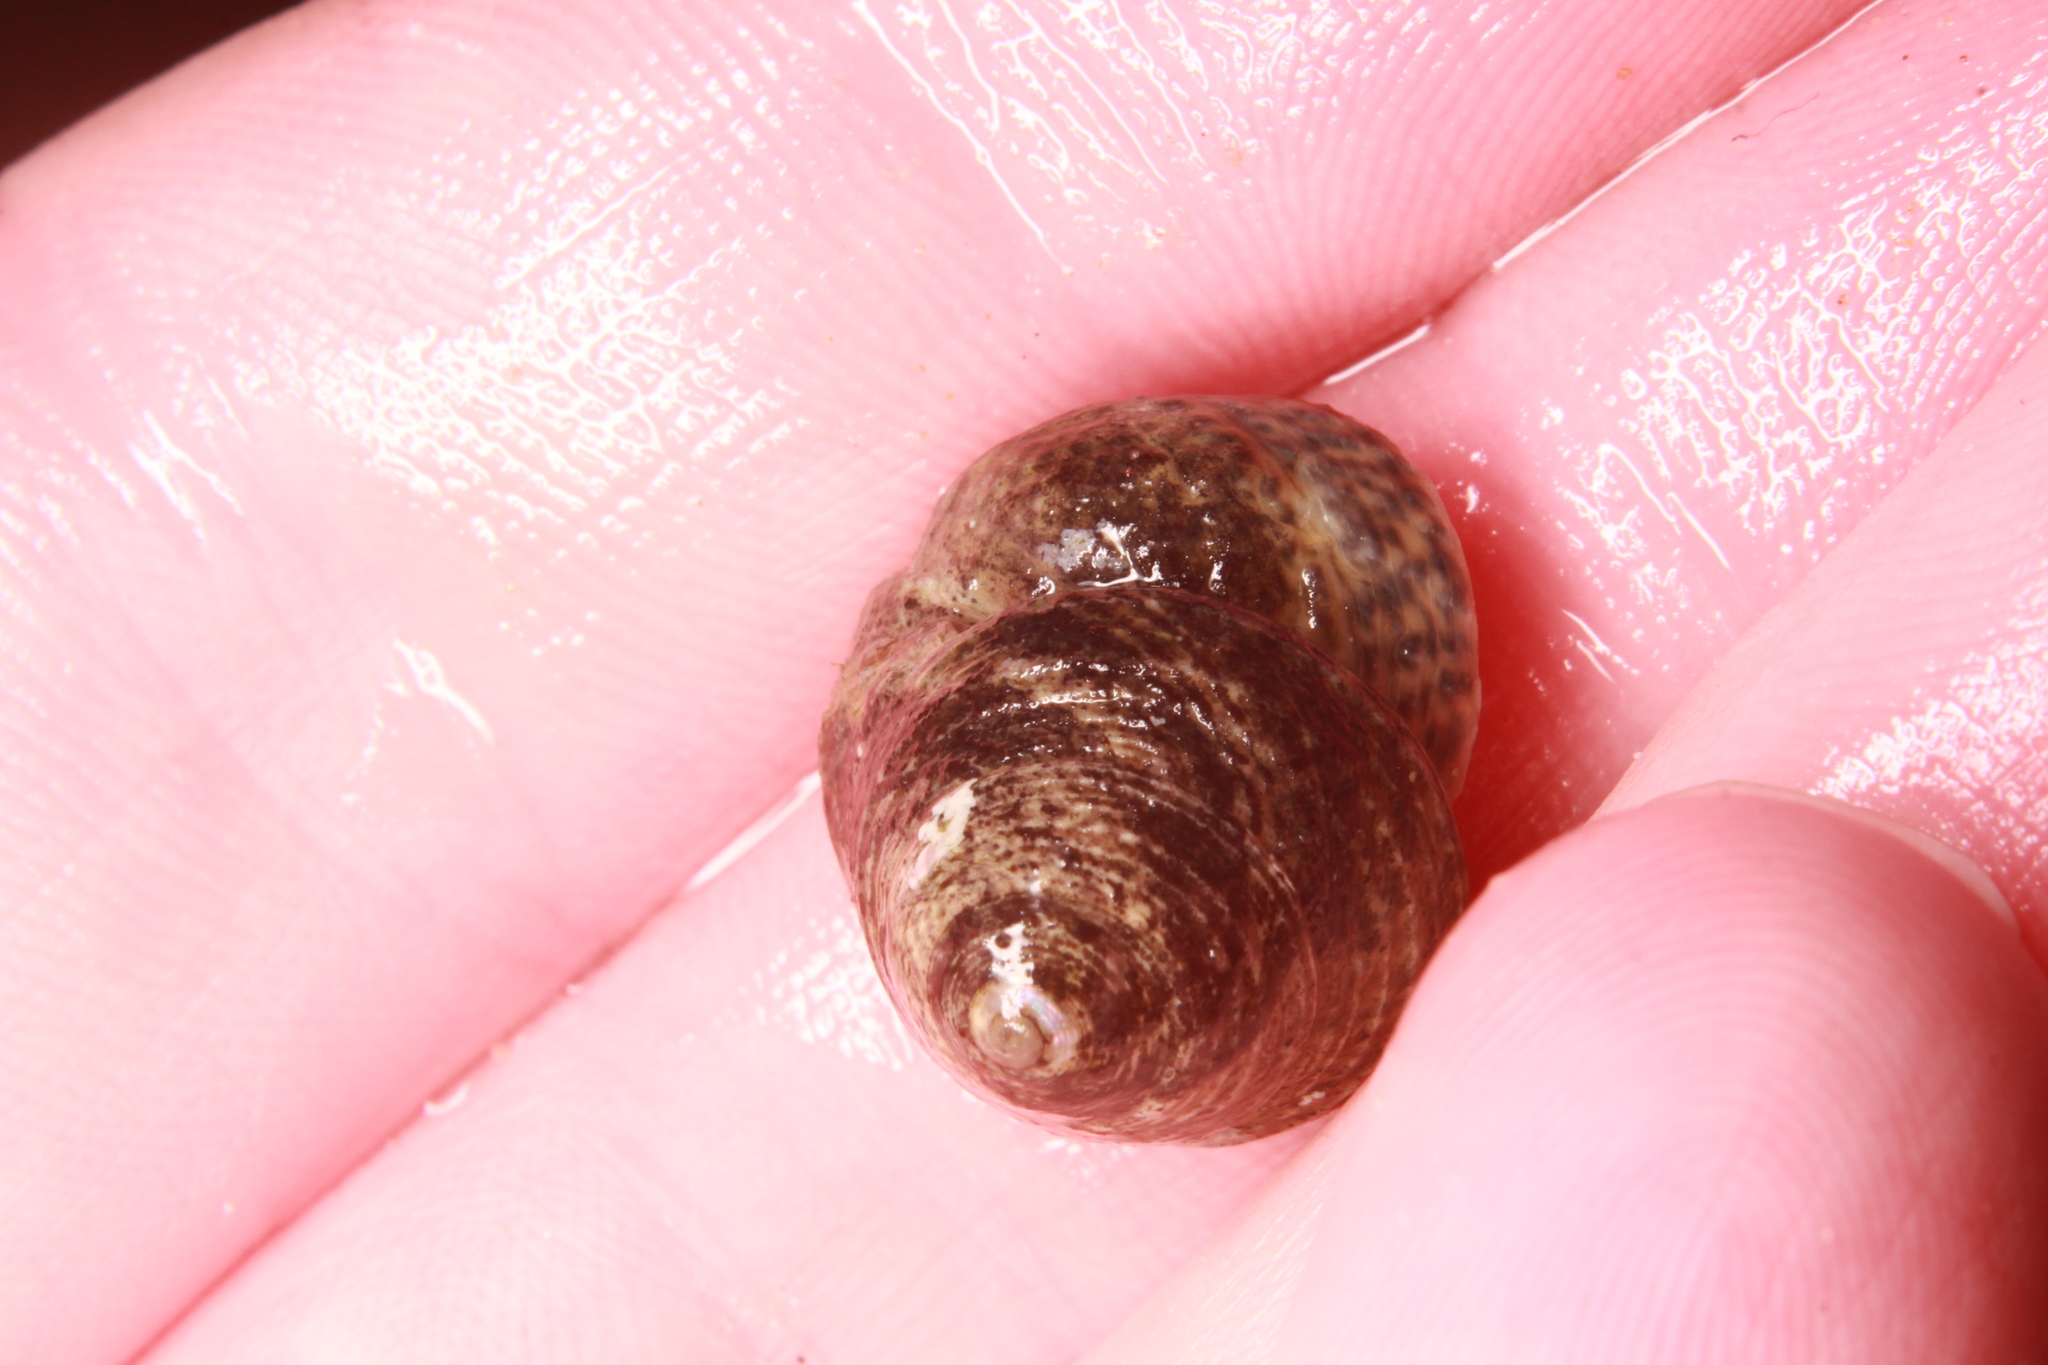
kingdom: Animalia
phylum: Mollusca
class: Gastropoda
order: Trochida
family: Trochidae
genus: Steromphala
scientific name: Steromphala cineraria
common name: Grey top shell
